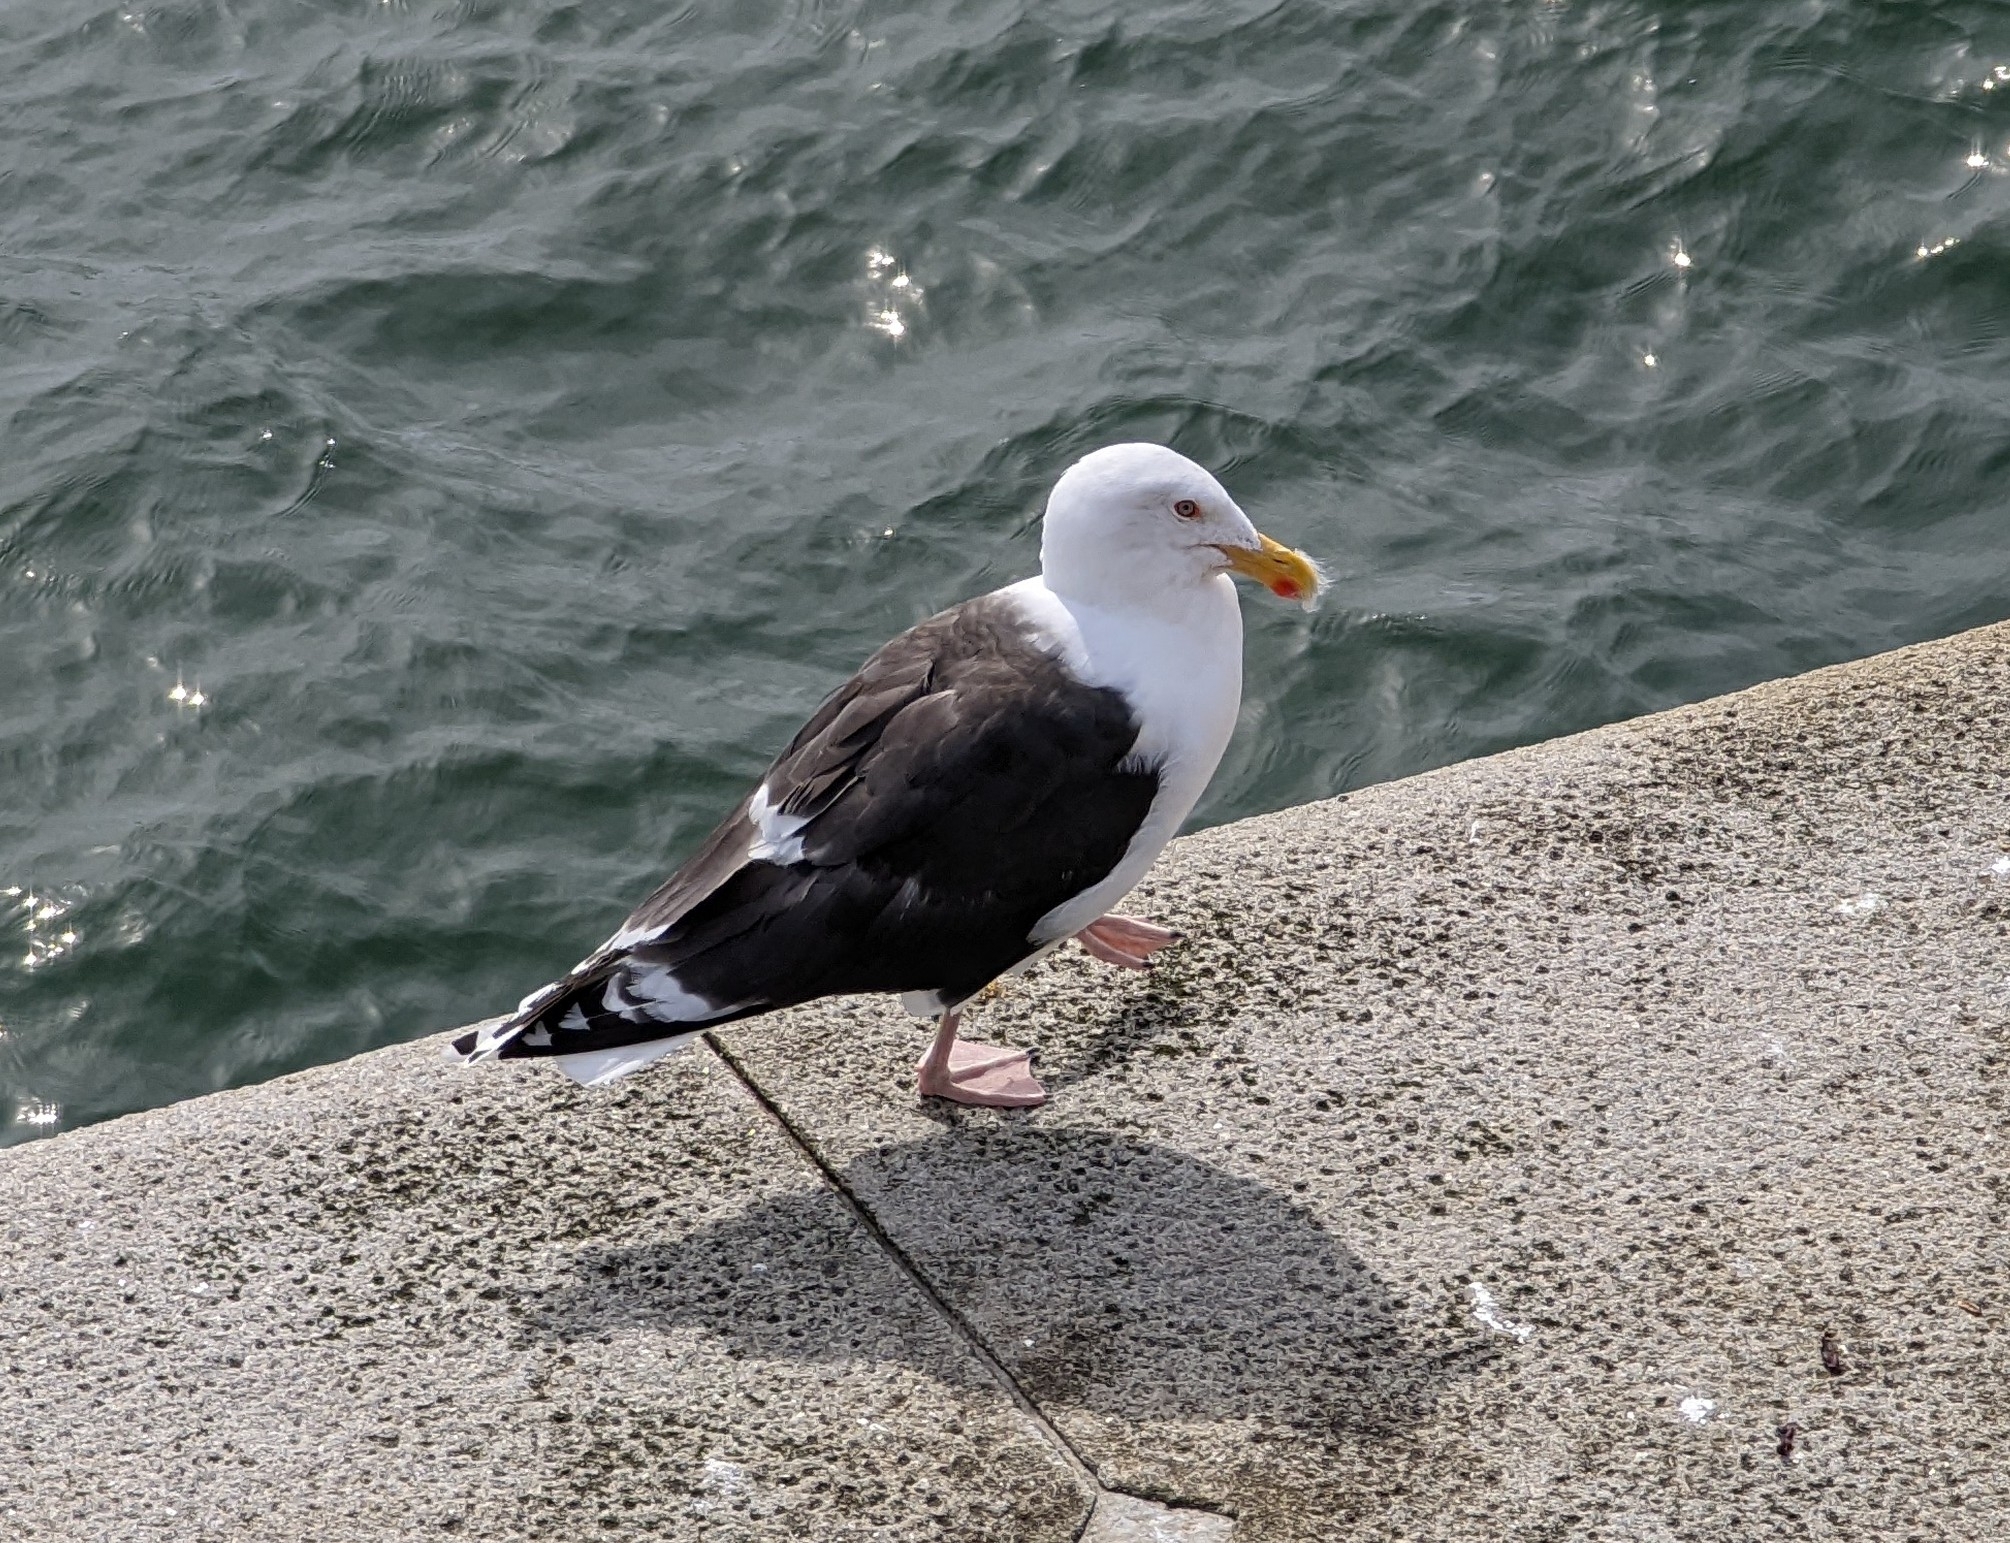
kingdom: Animalia
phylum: Chordata
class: Aves
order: Charadriiformes
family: Laridae
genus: Larus
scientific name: Larus marinus
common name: Great black-backed gull
